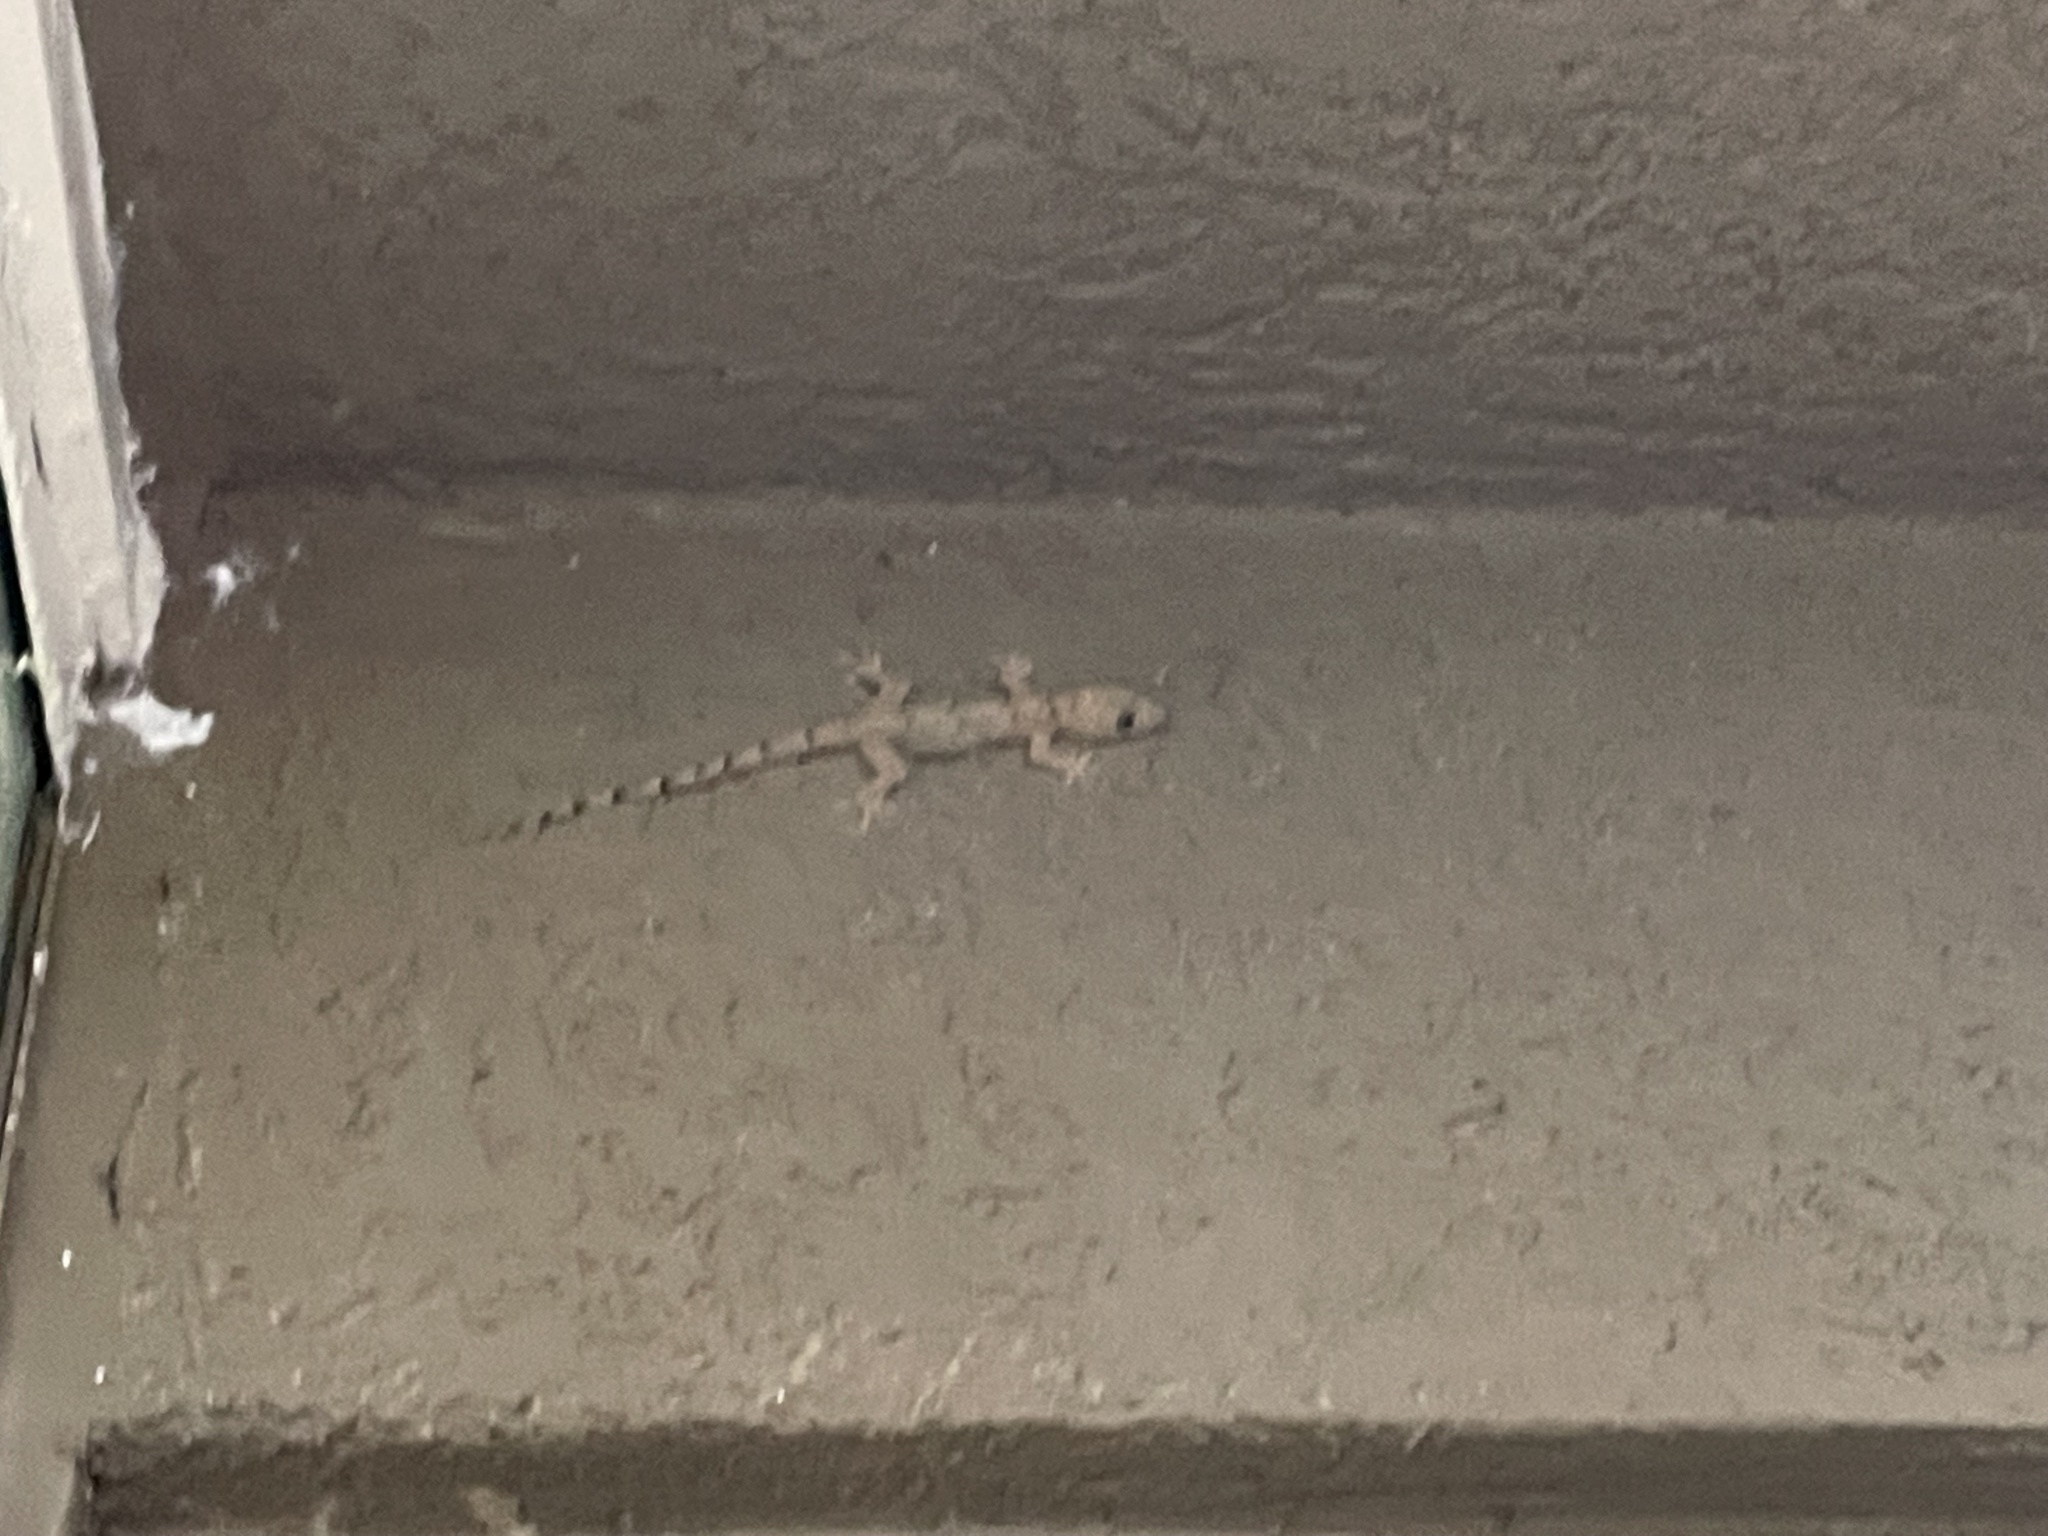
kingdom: Animalia
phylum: Chordata
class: Squamata
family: Gekkonidae
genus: Hemidactylus
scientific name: Hemidactylus mabouia
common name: House gecko
